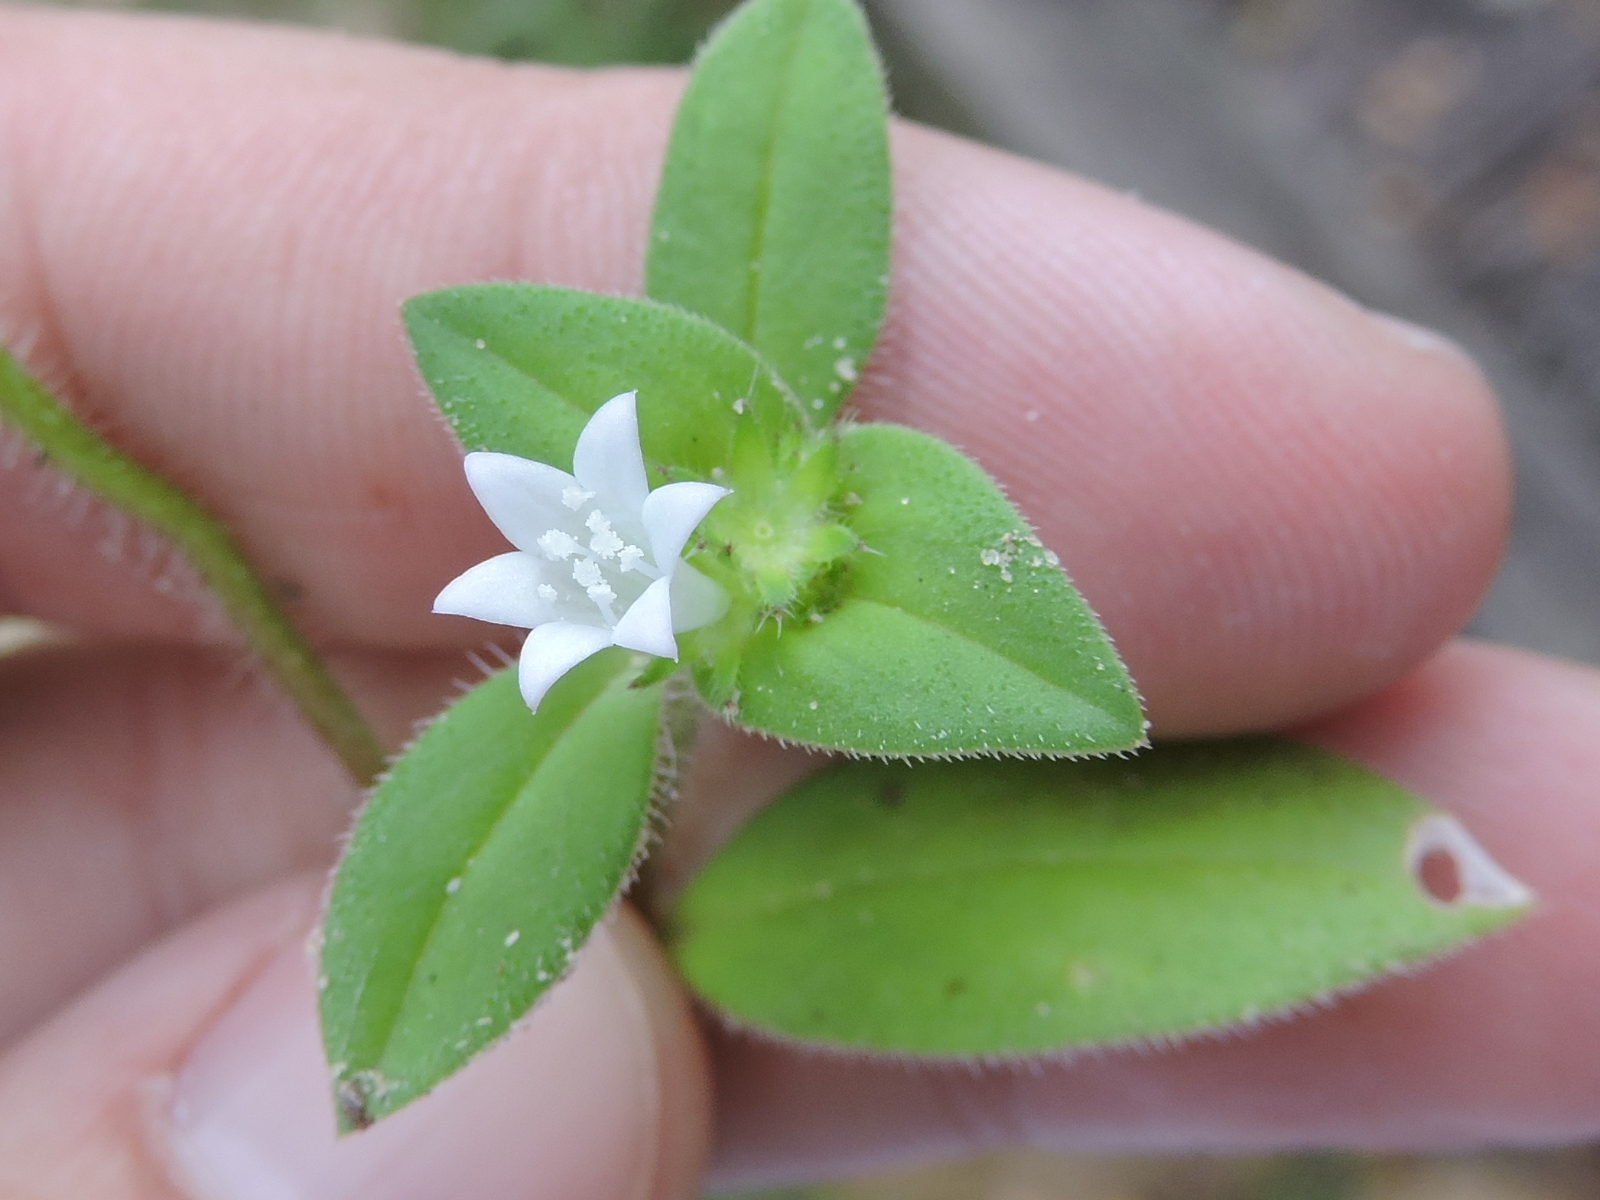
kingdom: Plantae
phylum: Tracheophyta
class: Magnoliopsida
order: Gentianales
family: Rubiaceae
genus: Richardia
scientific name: Richardia scabra
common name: Rough mexican clover
